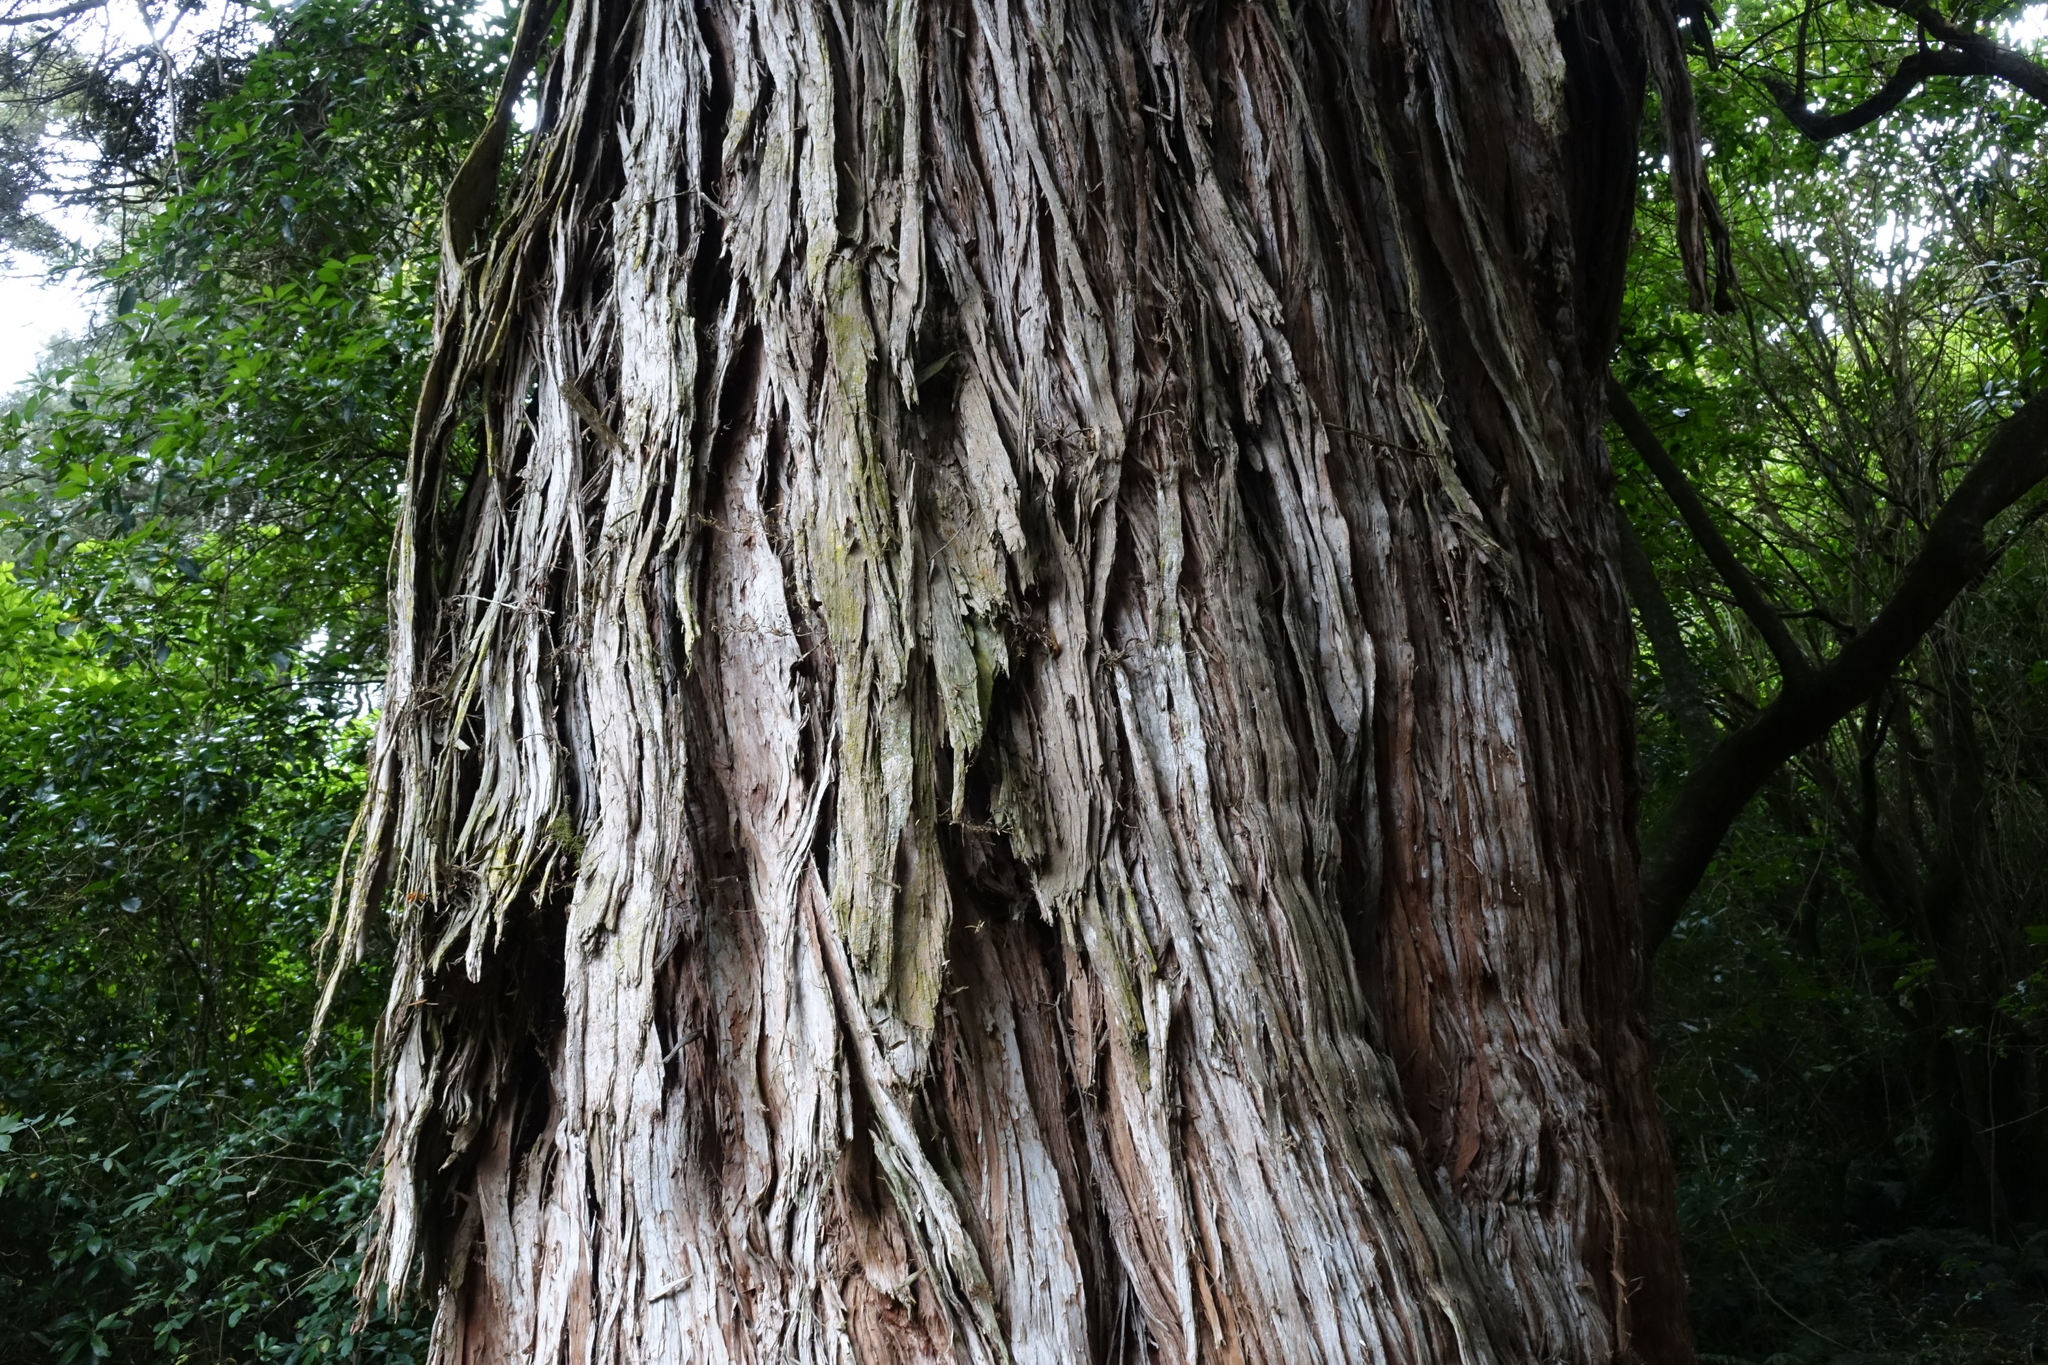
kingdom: Plantae
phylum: Tracheophyta
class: Pinopsida
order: Pinales
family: Podocarpaceae
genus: Podocarpus
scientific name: Podocarpus totara
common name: Totara
